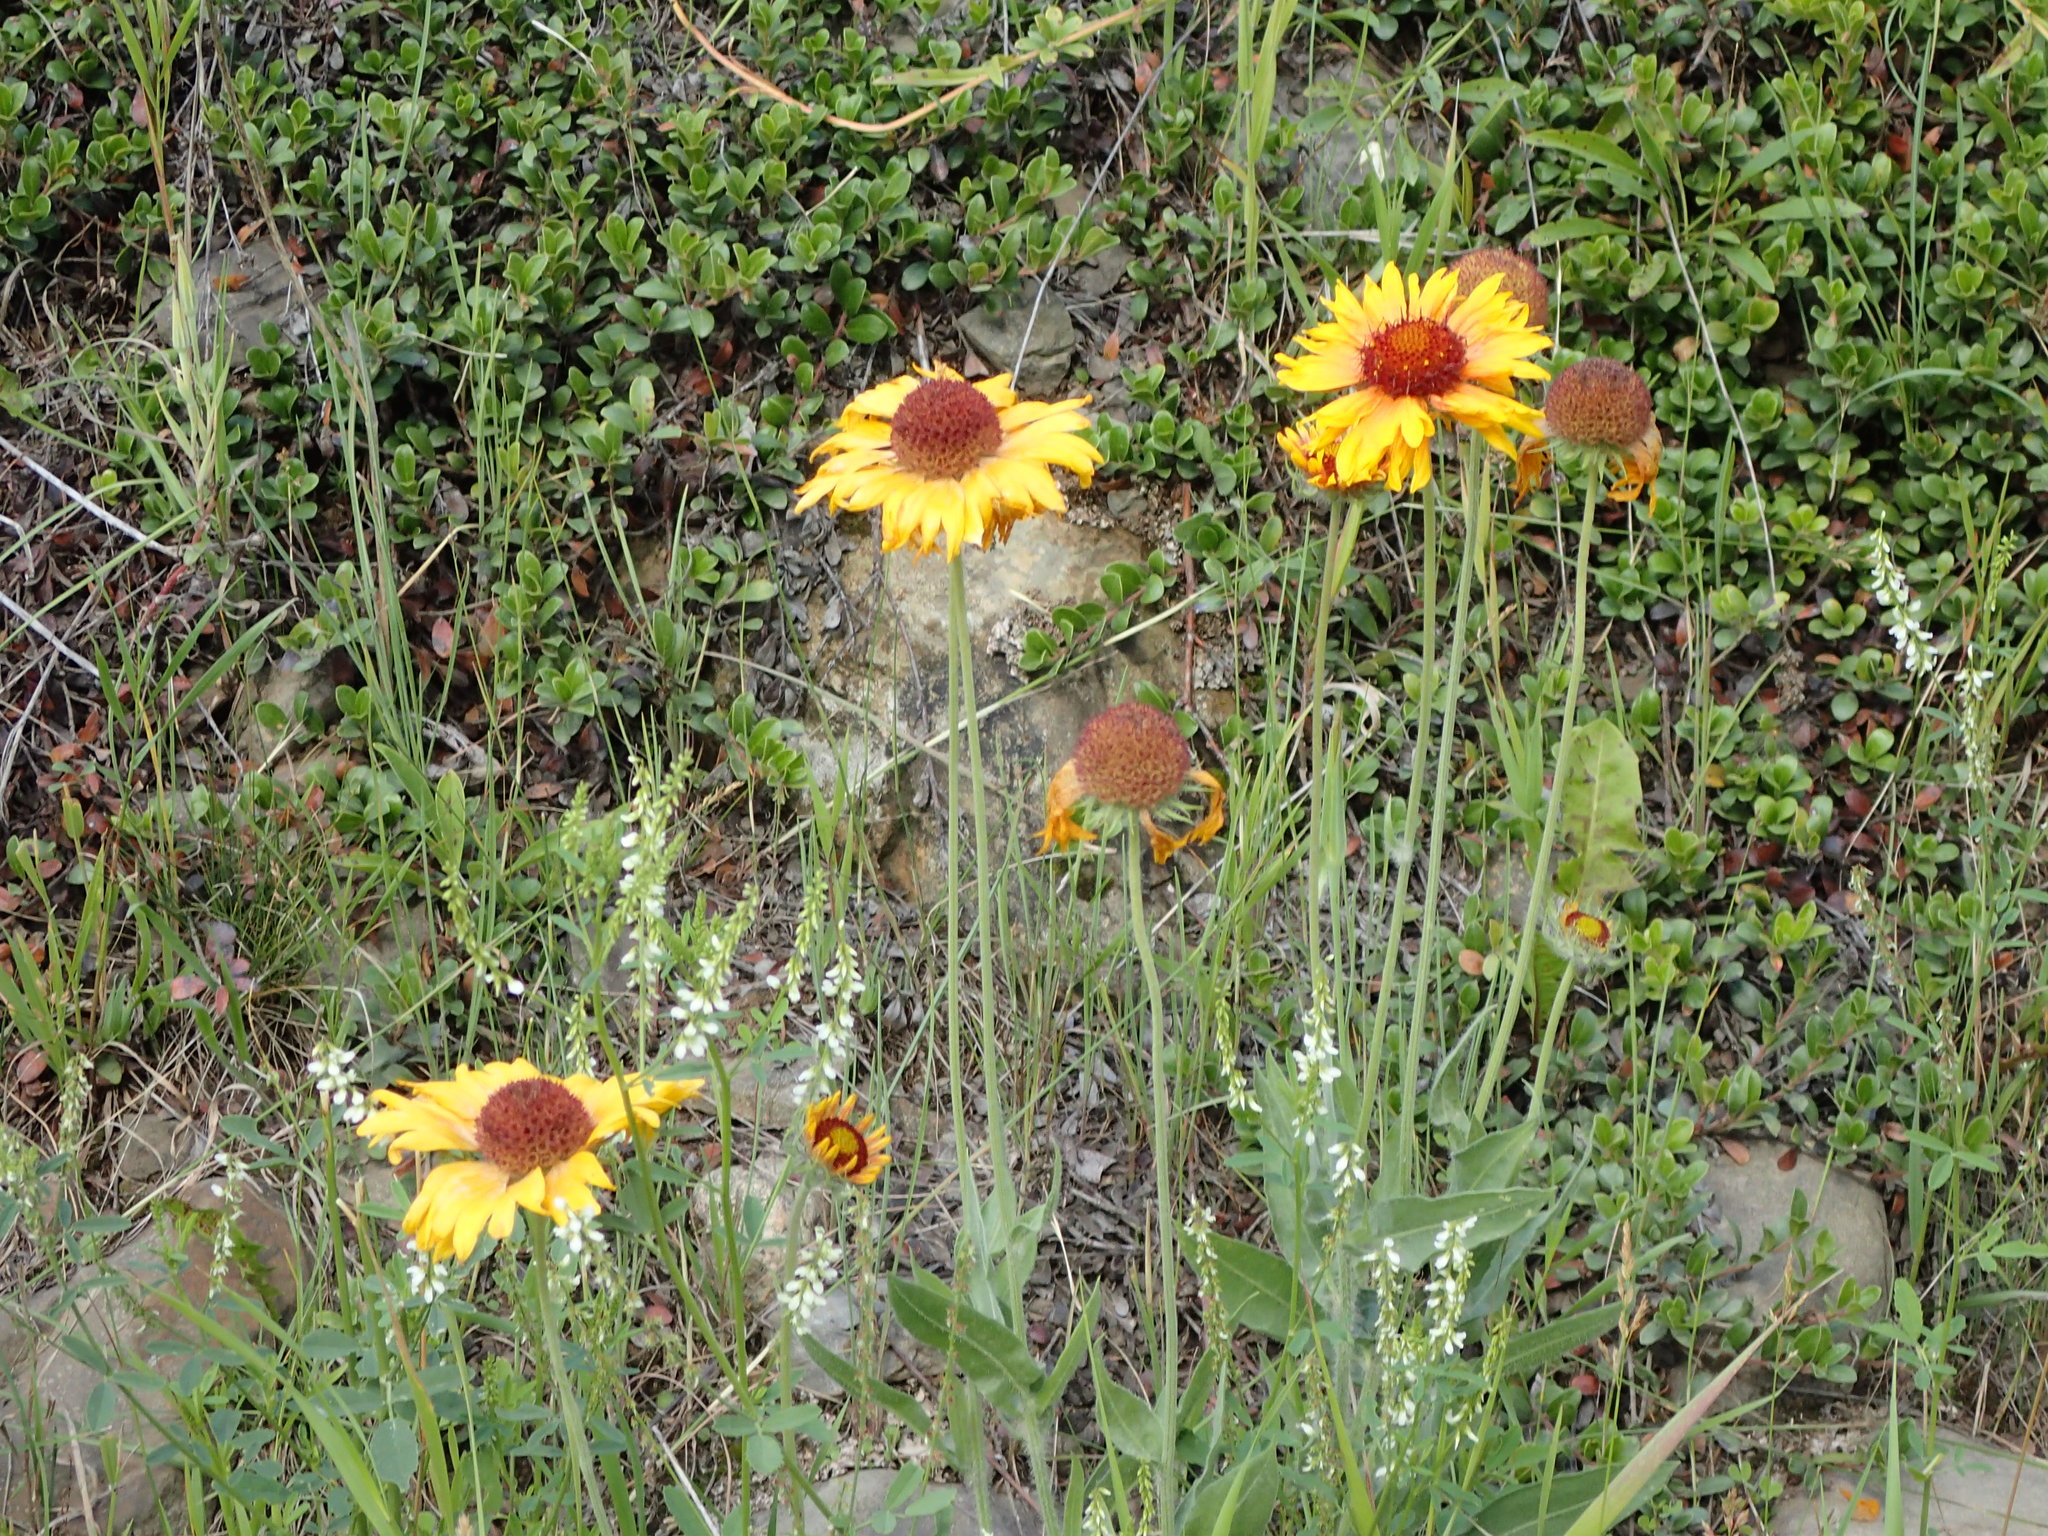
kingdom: Plantae
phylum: Tracheophyta
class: Magnoliopsida
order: Asterales
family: Asteraceae
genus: Gaillardia
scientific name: Gaillardia aristata
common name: Blanket-flower
